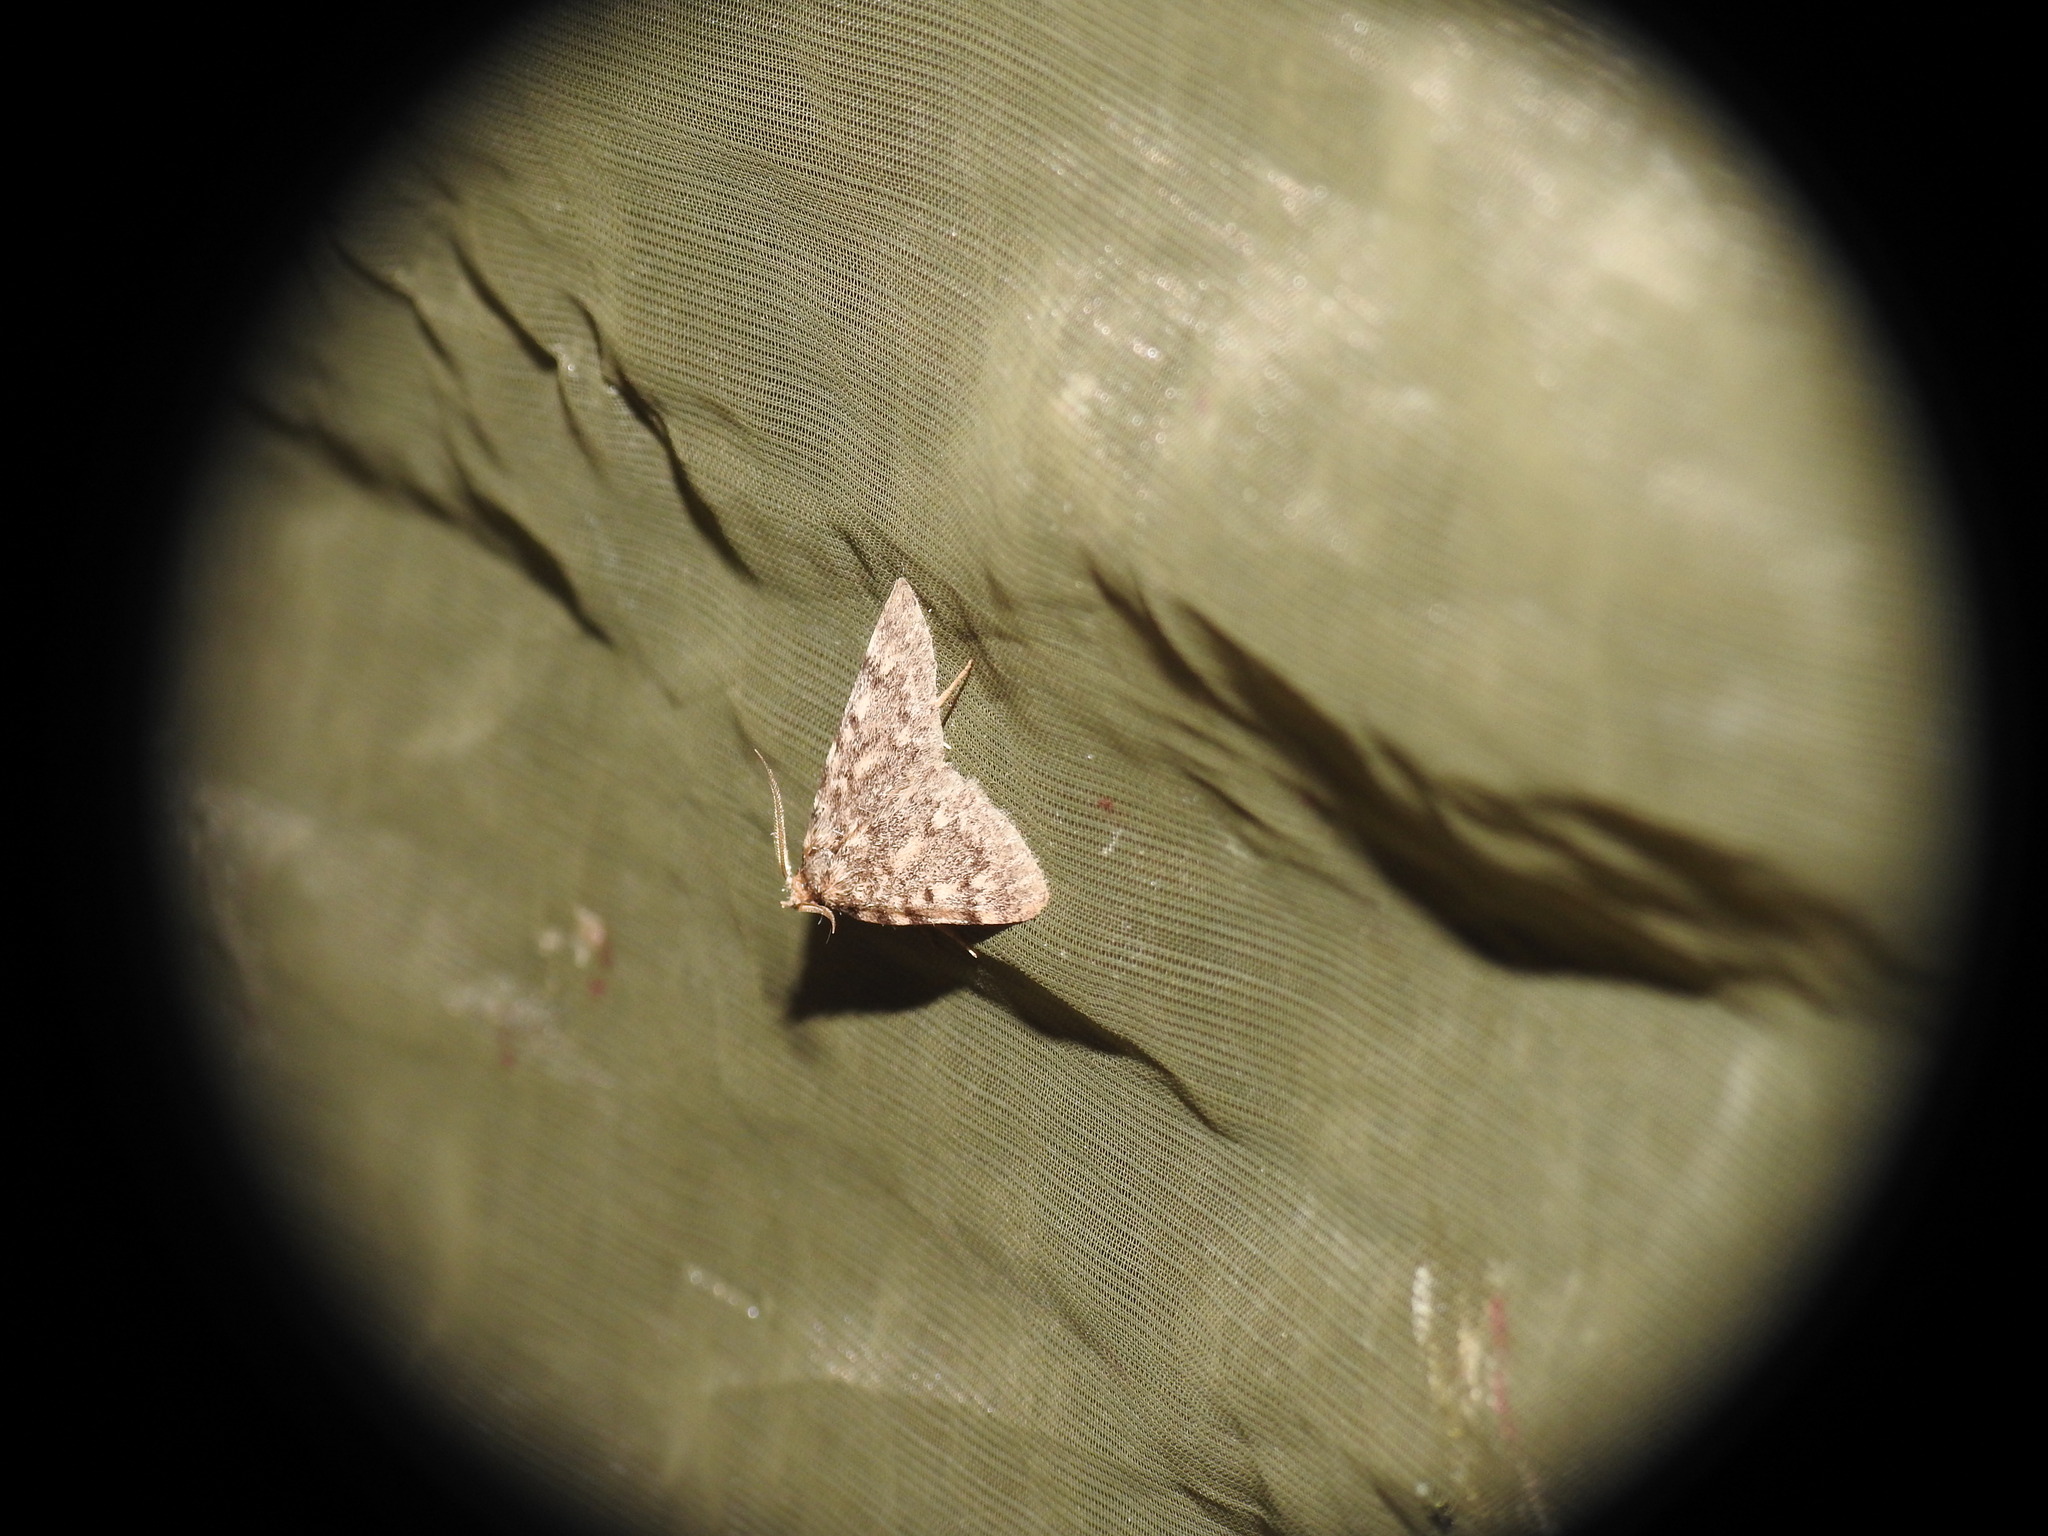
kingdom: Animalia
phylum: Arthropoda
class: Insecta
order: Lepidoptera
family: Pyralidae
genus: Aglossa
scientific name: Aglossa pinguinalis
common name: Large tabby
